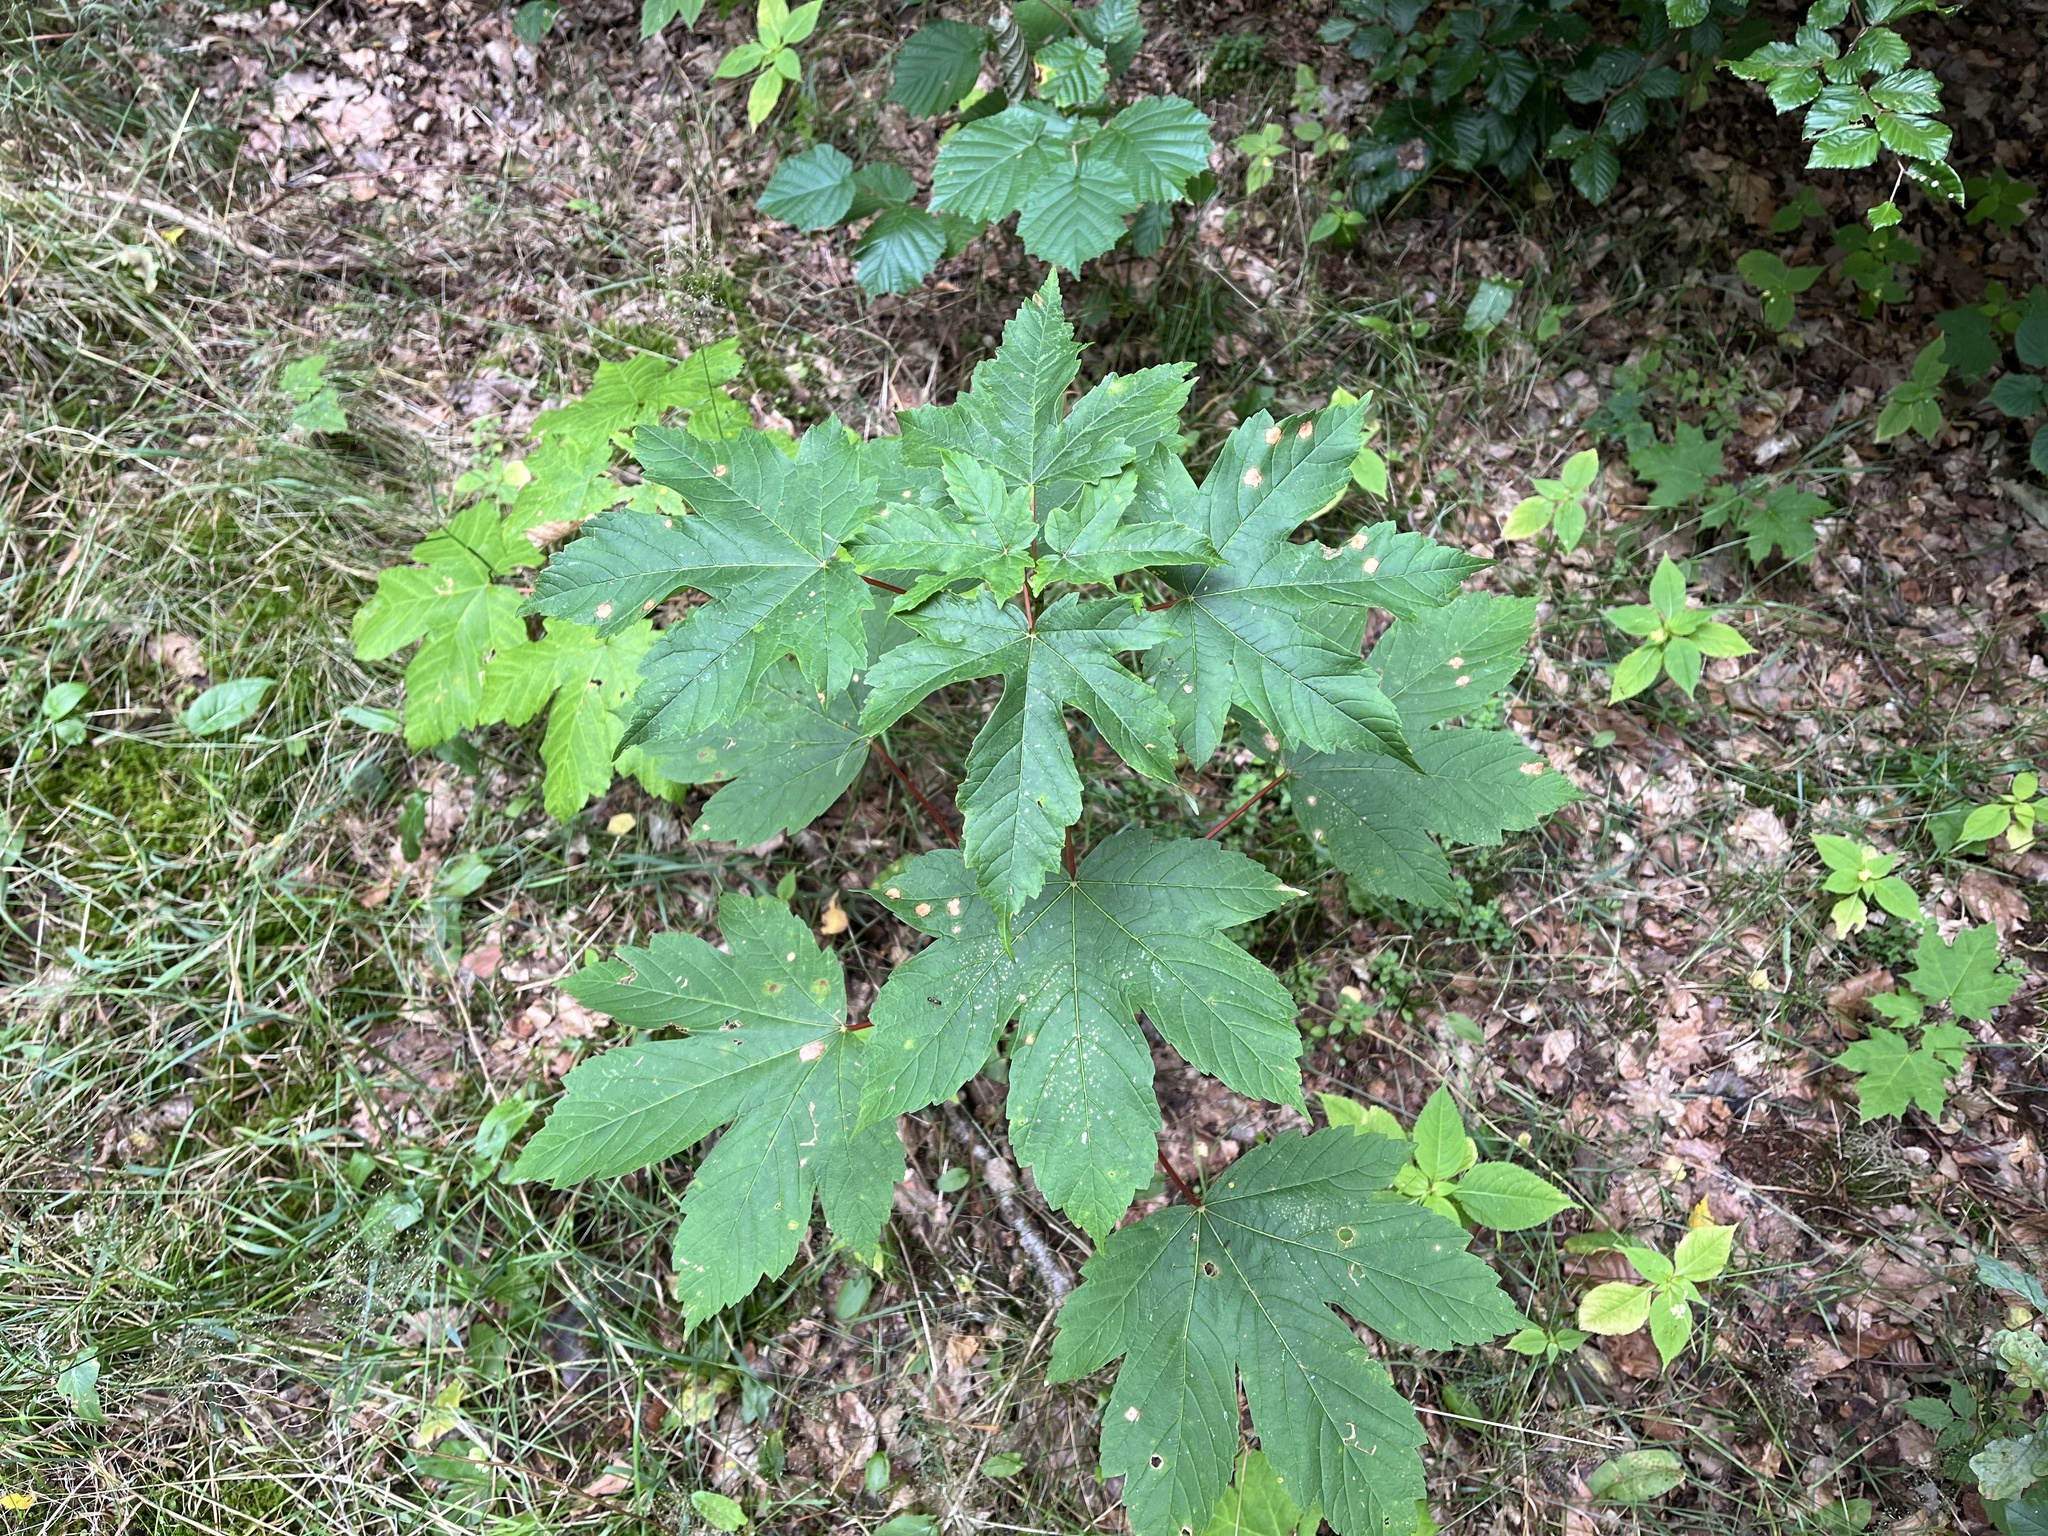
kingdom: Plantae
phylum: Tracheophyta
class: Magnoliopsida
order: Sapindales
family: Sapindaceae
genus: Acer
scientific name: Acer pseudoplatanus
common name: Sycamore
